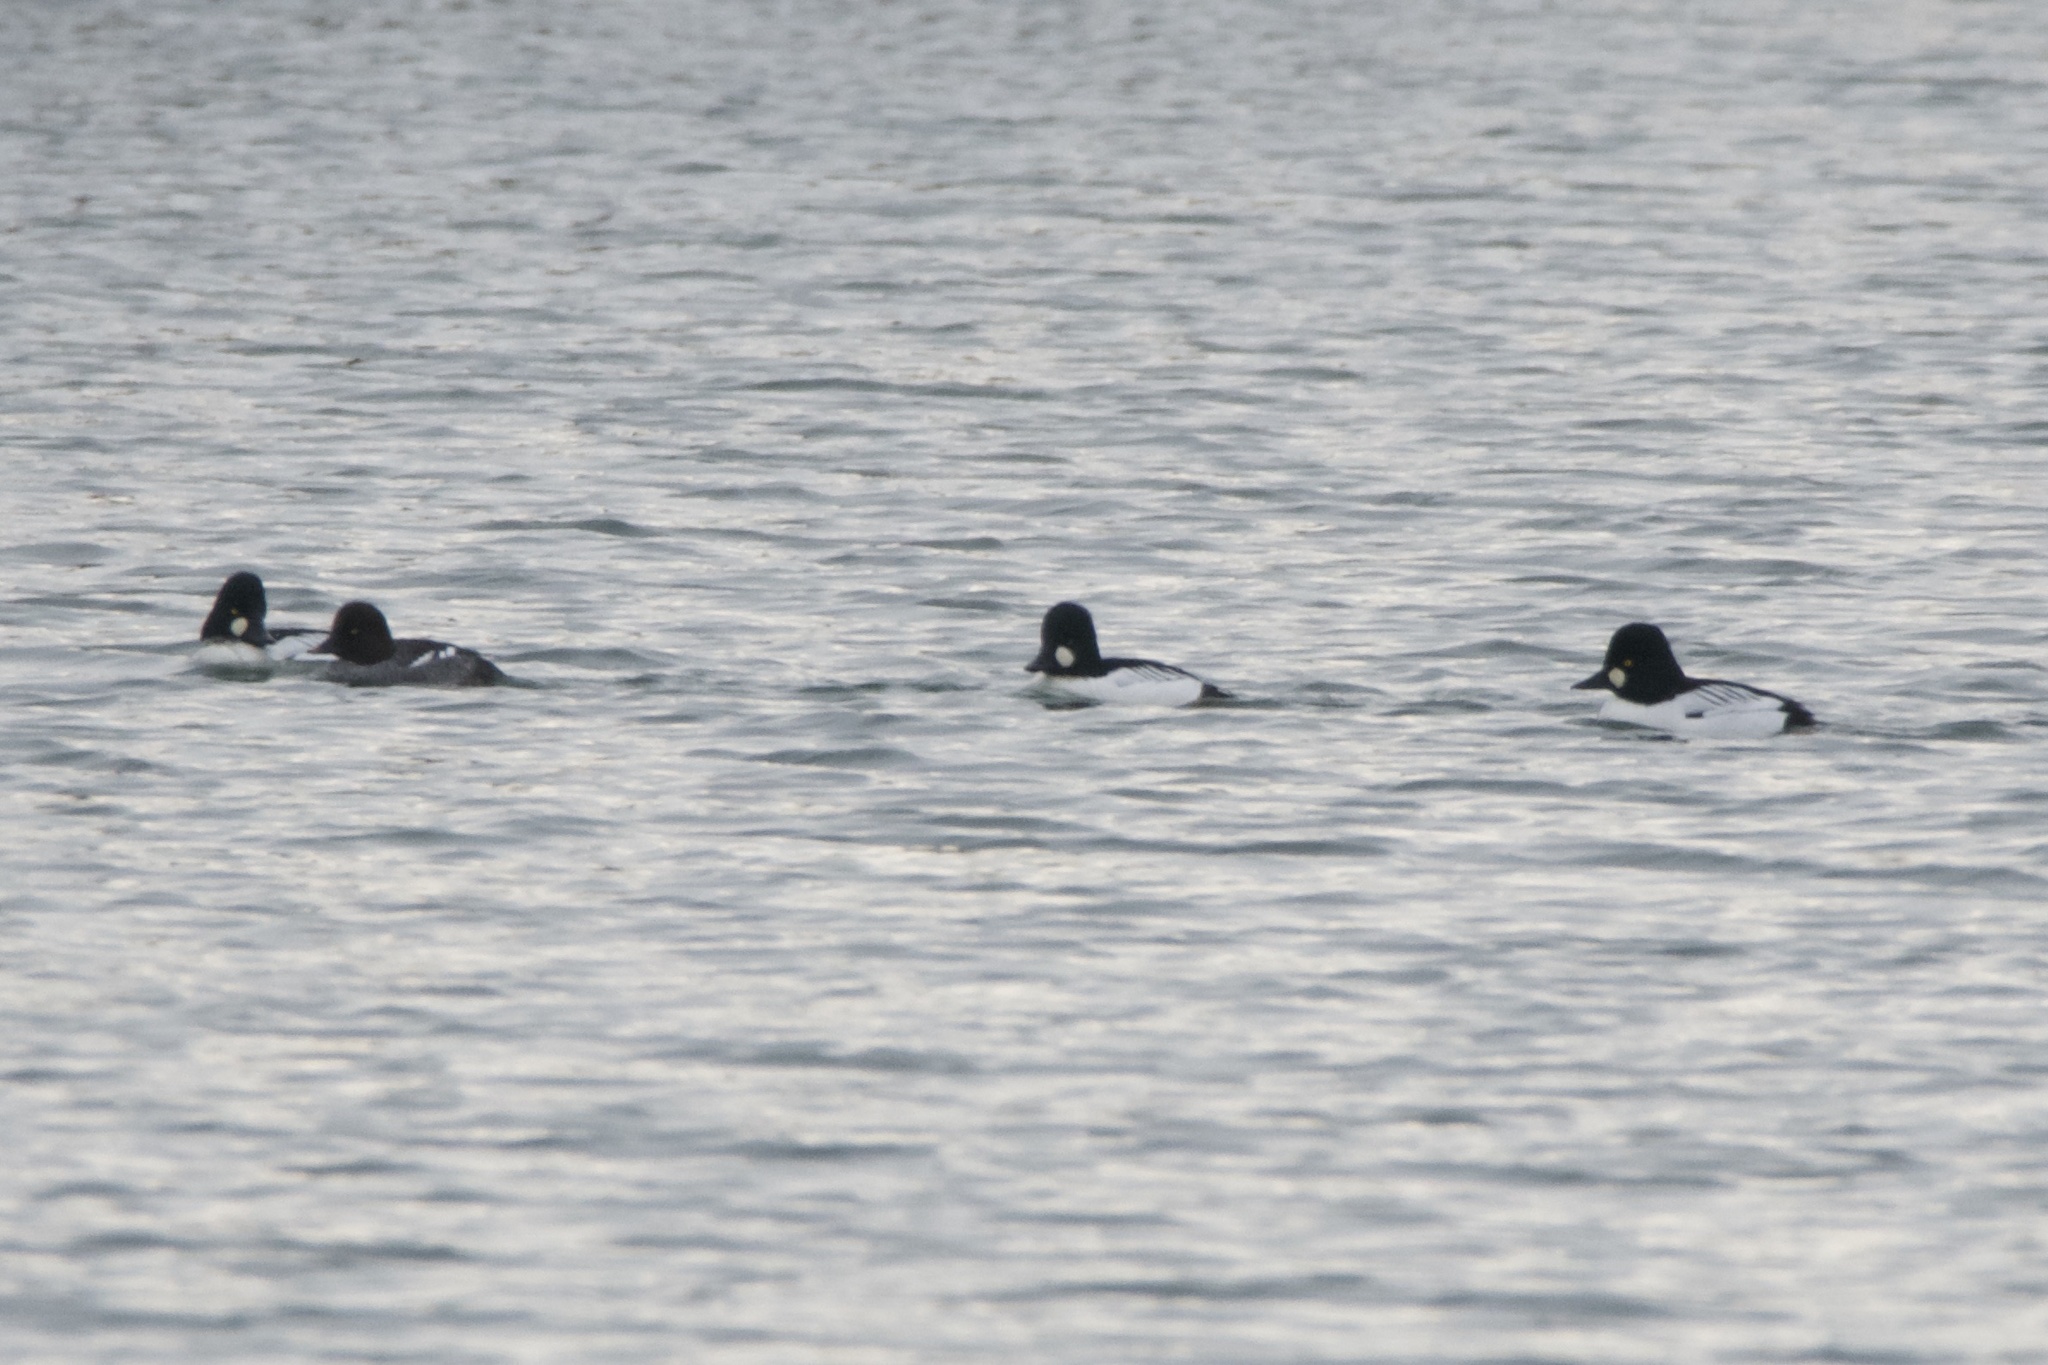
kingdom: Animalia
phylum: Chordata
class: Aves
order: Anseriformes
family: Anatidae
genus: Bucephala
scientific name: Bucephala clangula
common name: Common goldeneye
